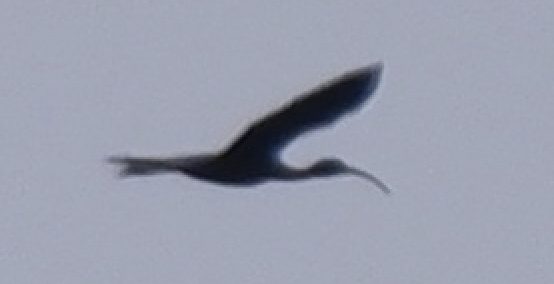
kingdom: Animalia
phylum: Chordata
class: Aves
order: Pelecaniformes
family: Threskiornithidae
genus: Plegadis
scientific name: Plegadis falcinellus
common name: Glossy ibis
